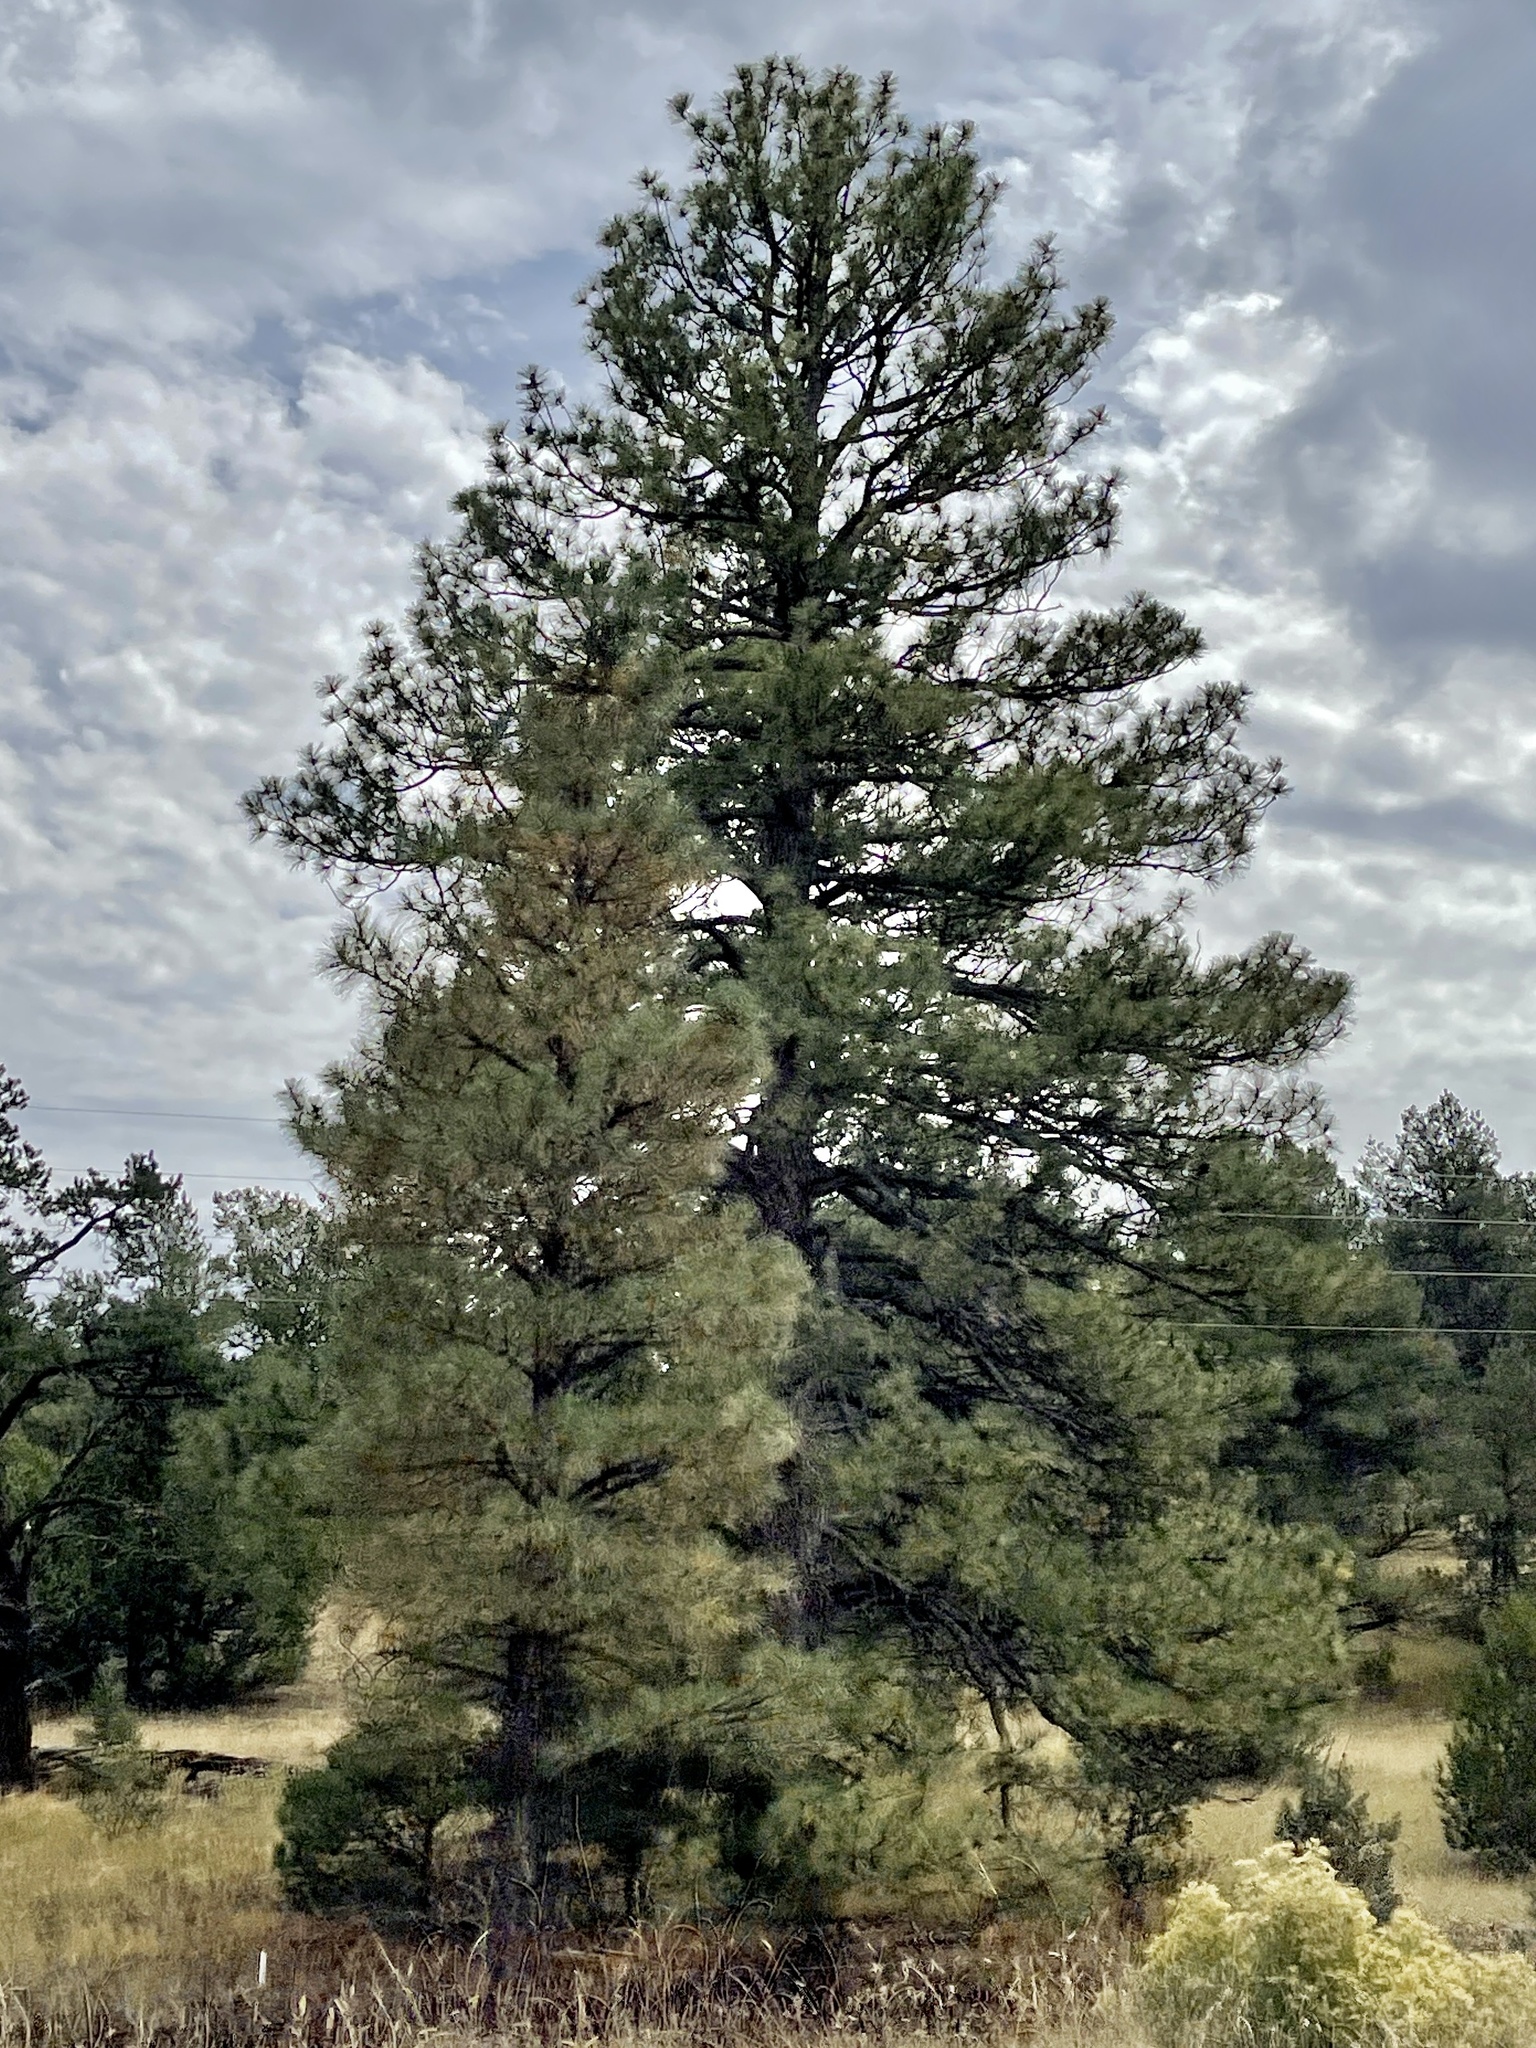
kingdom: Plantae
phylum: Tracheophyta
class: Pinopsida
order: Pinales
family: Pinaceae
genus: Pinus
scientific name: Pinus ponderosa
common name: Western yellow-pine
